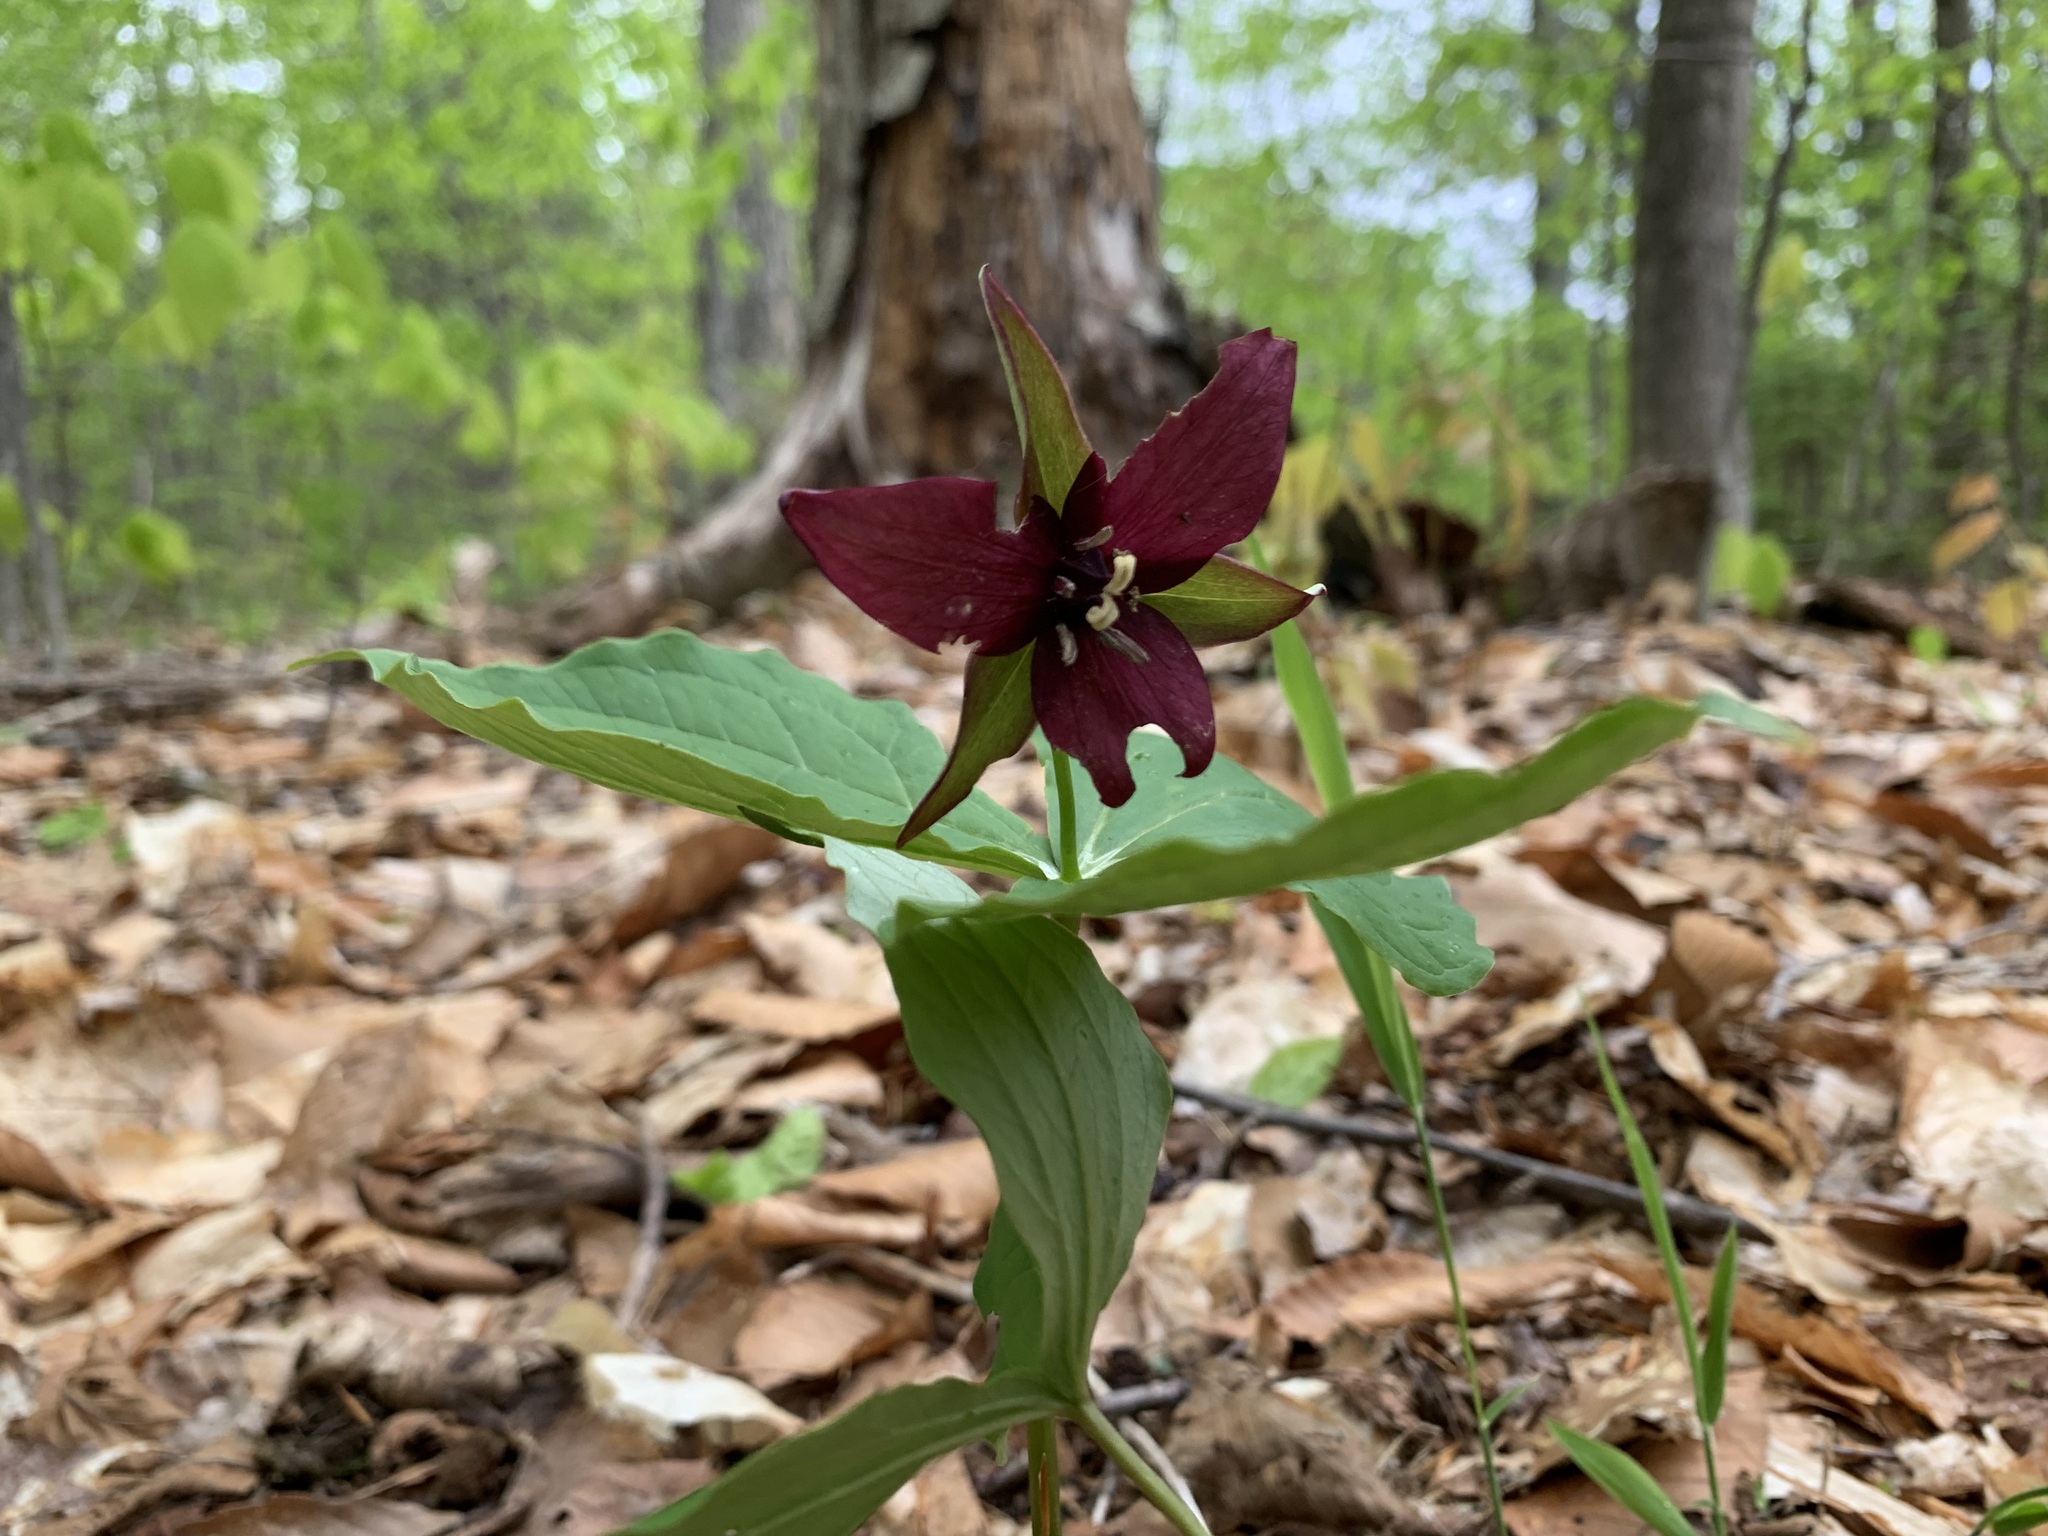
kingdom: Plantae
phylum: Tracheophyta
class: Liliopsida
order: Liliales
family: Melanthiaceae
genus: Trillium
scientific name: Trillium erectum
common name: Purple trillium
